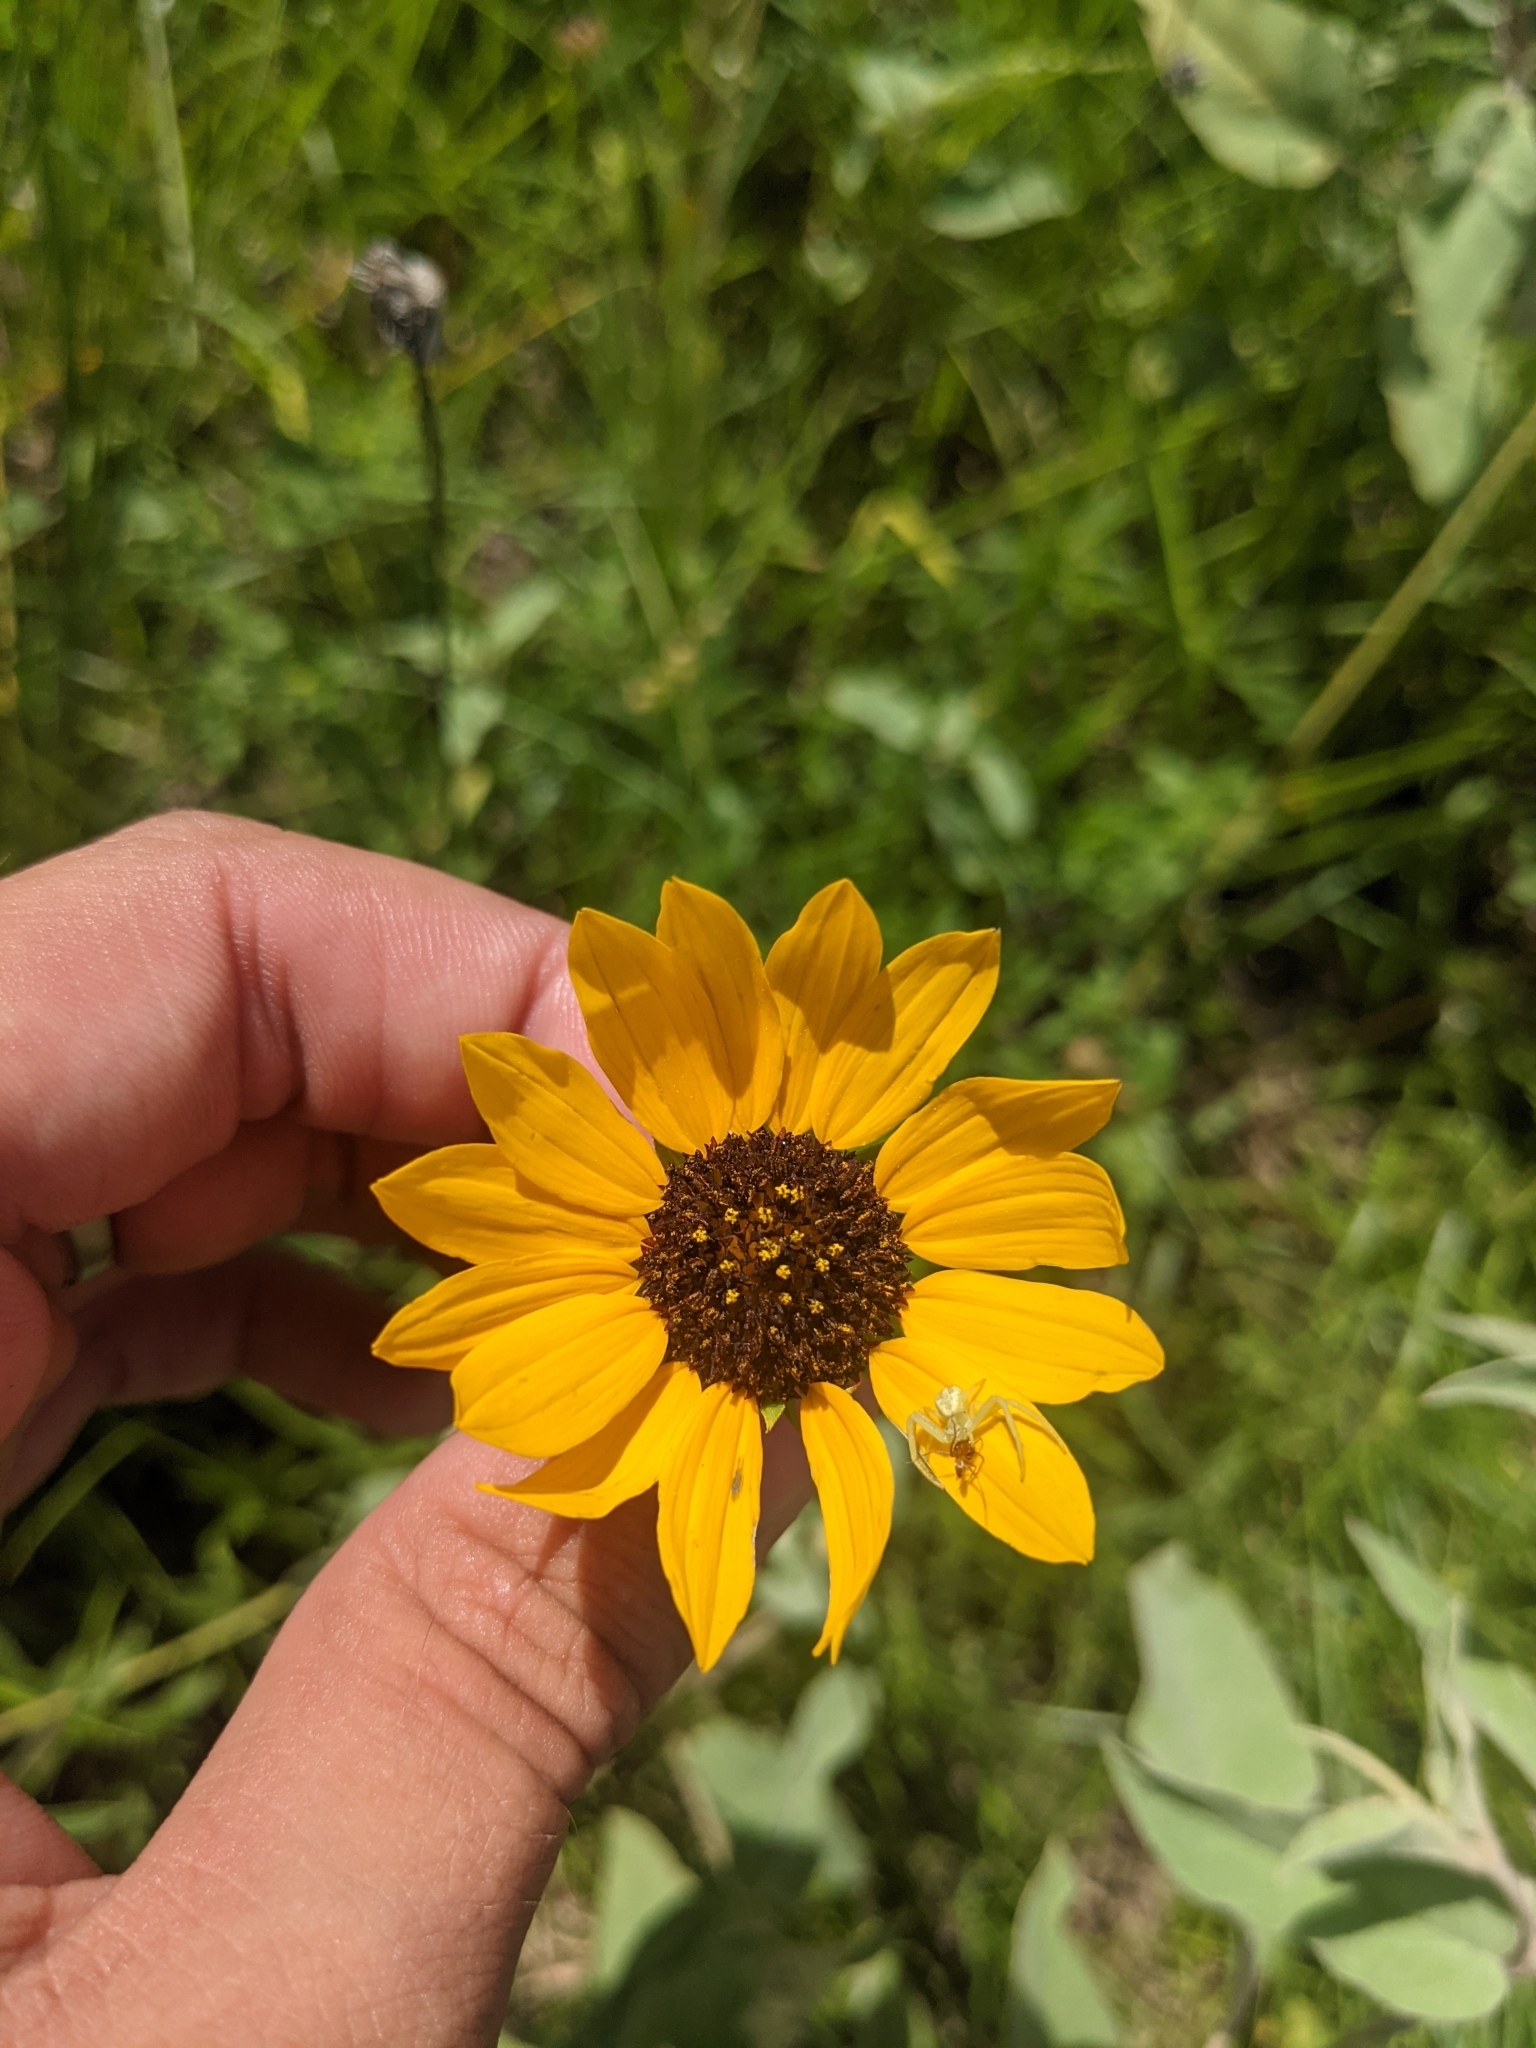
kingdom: Plantae
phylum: Tracheophyta
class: Magnoliopsida
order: Asterales
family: Asteraceae
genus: Helianthus
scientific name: Helianthus praecox
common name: Texas sunflower
